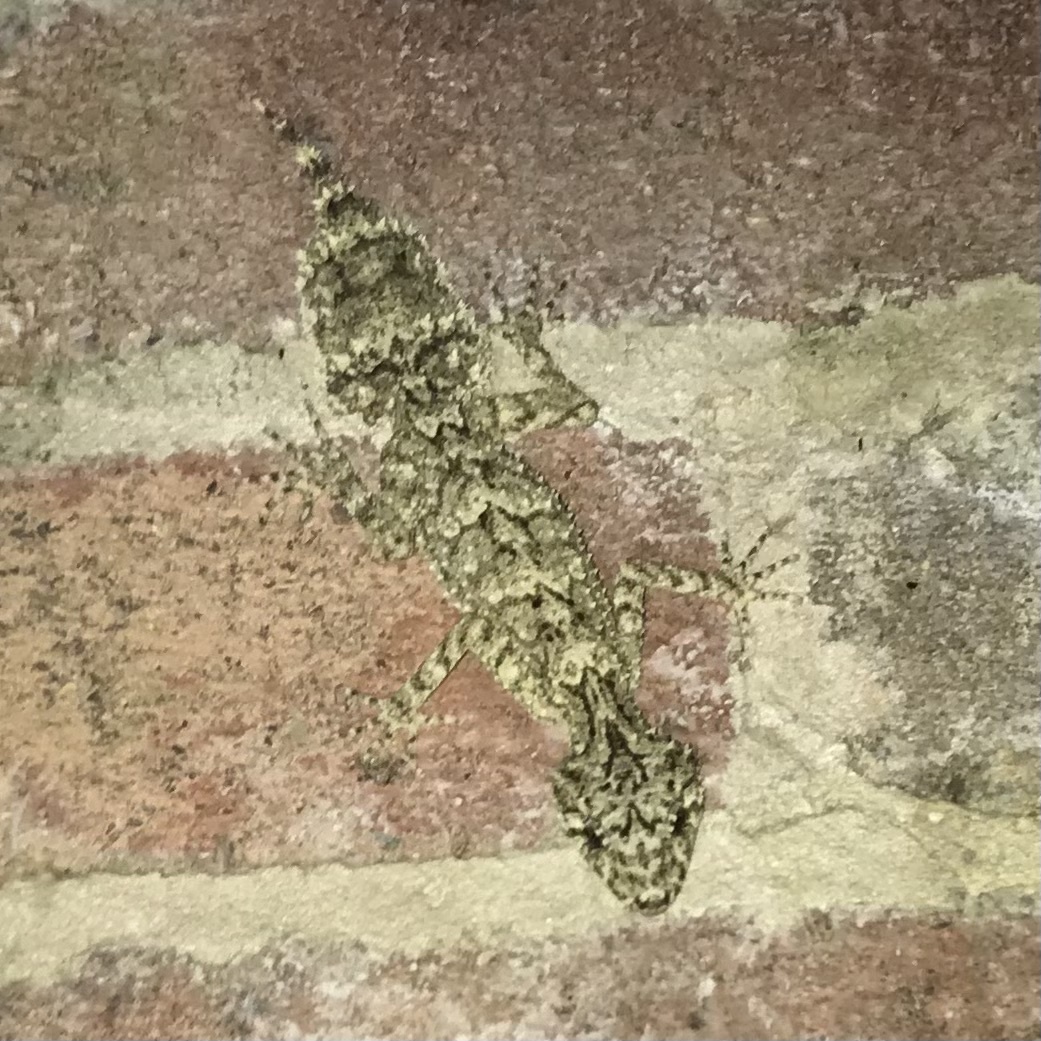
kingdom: Animalia
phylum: Chordata
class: Squamata
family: Carphodactylidae
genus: Saltuarius
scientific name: Saltuarius moritzi
